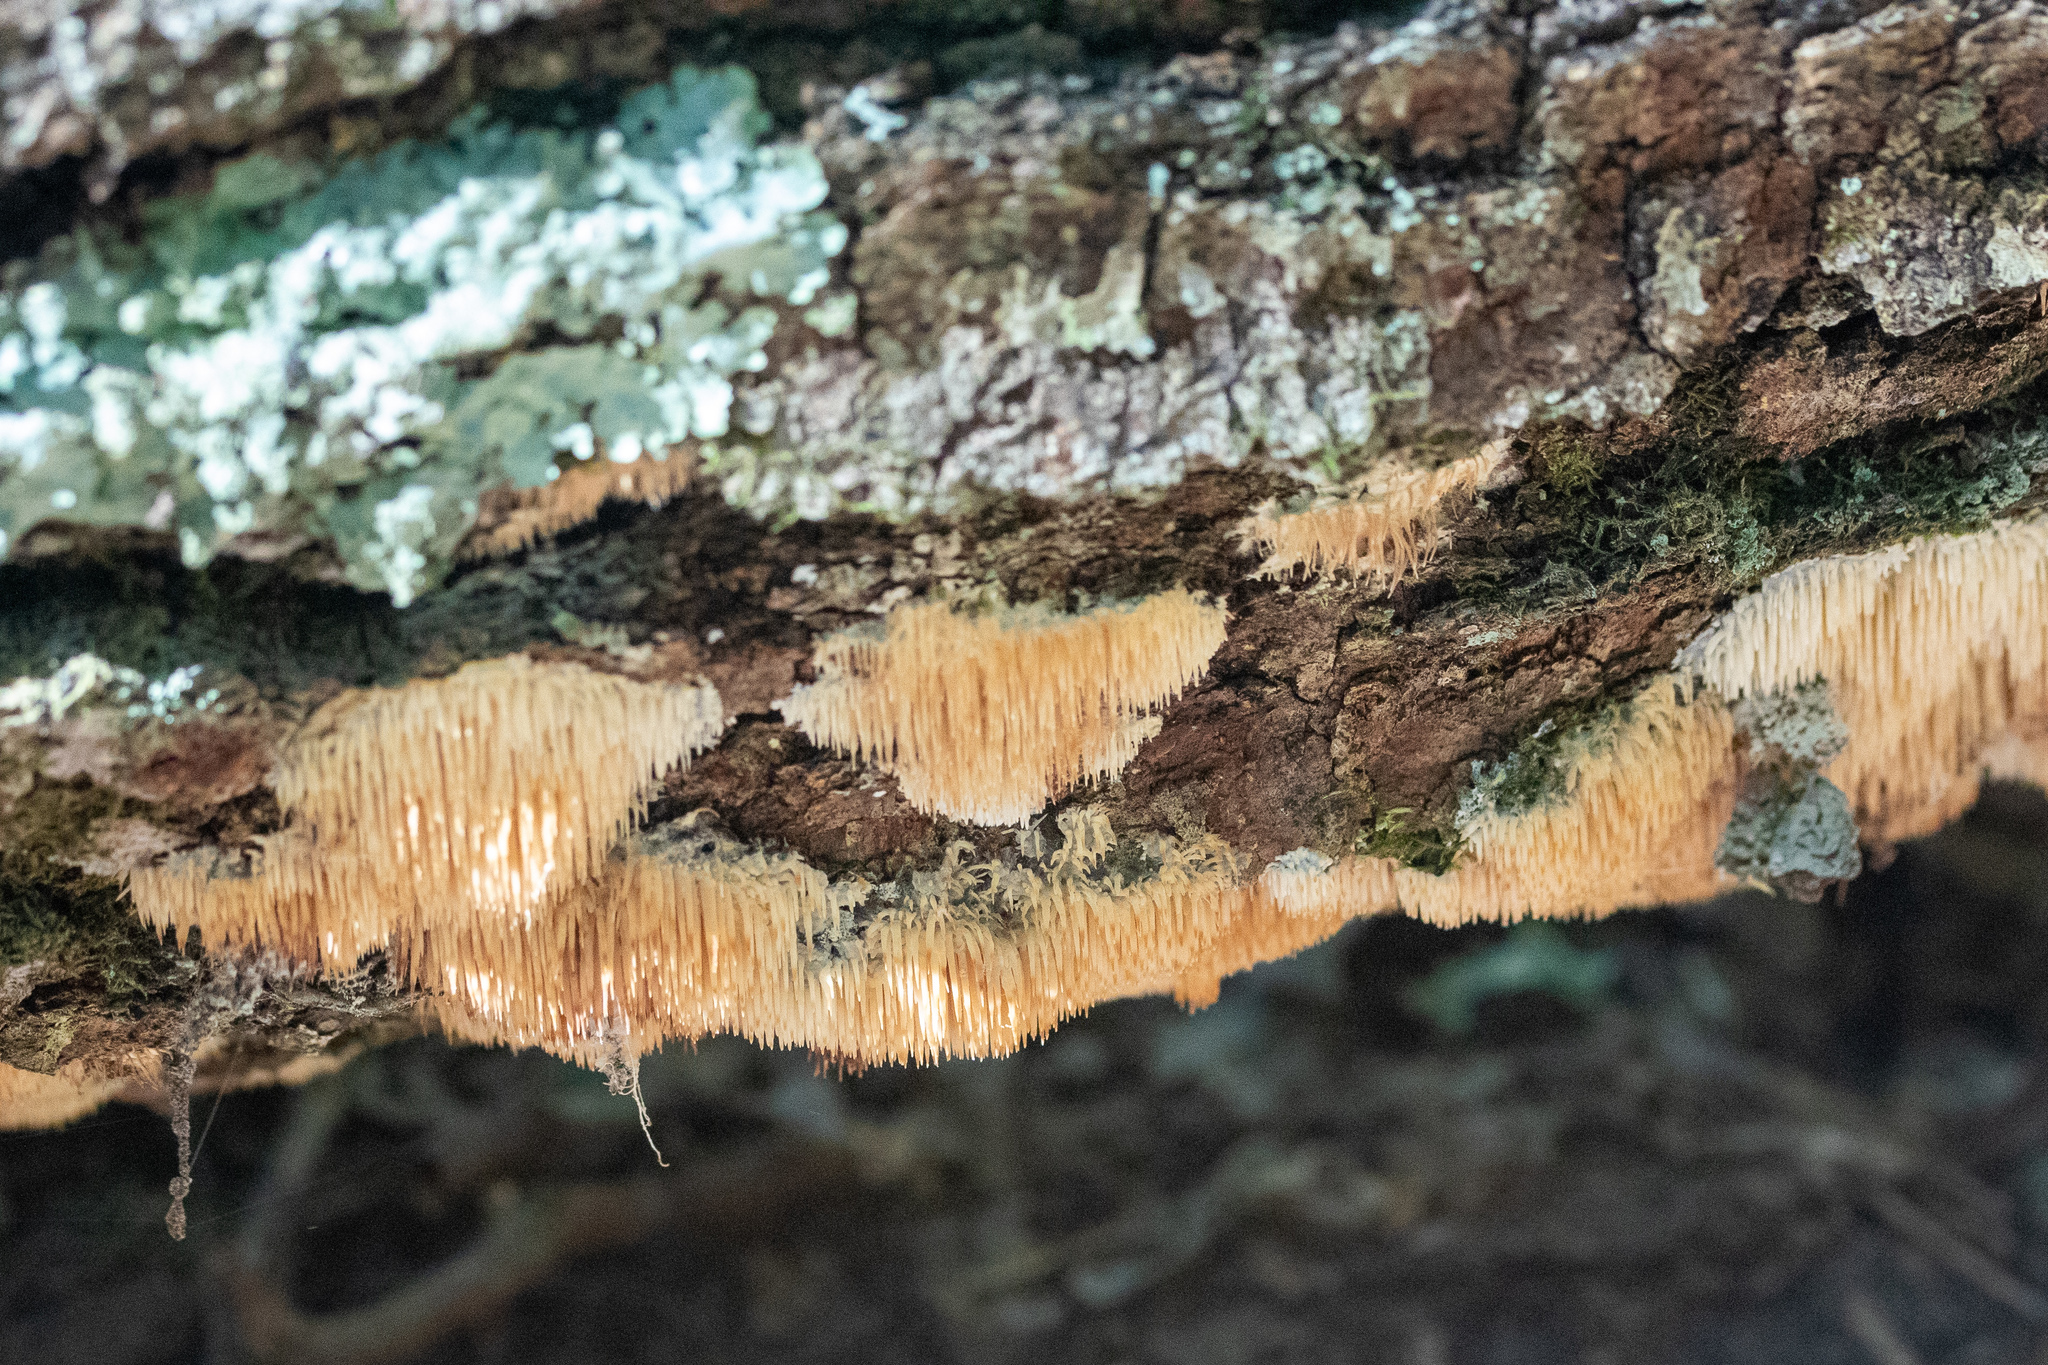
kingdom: Fungi
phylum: Basidiomycota
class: Agaricomycetes
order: Agaricales
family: Radulomycetaceae
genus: Radulomyces
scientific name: Radulomyces copelandii
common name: Asian beauty
